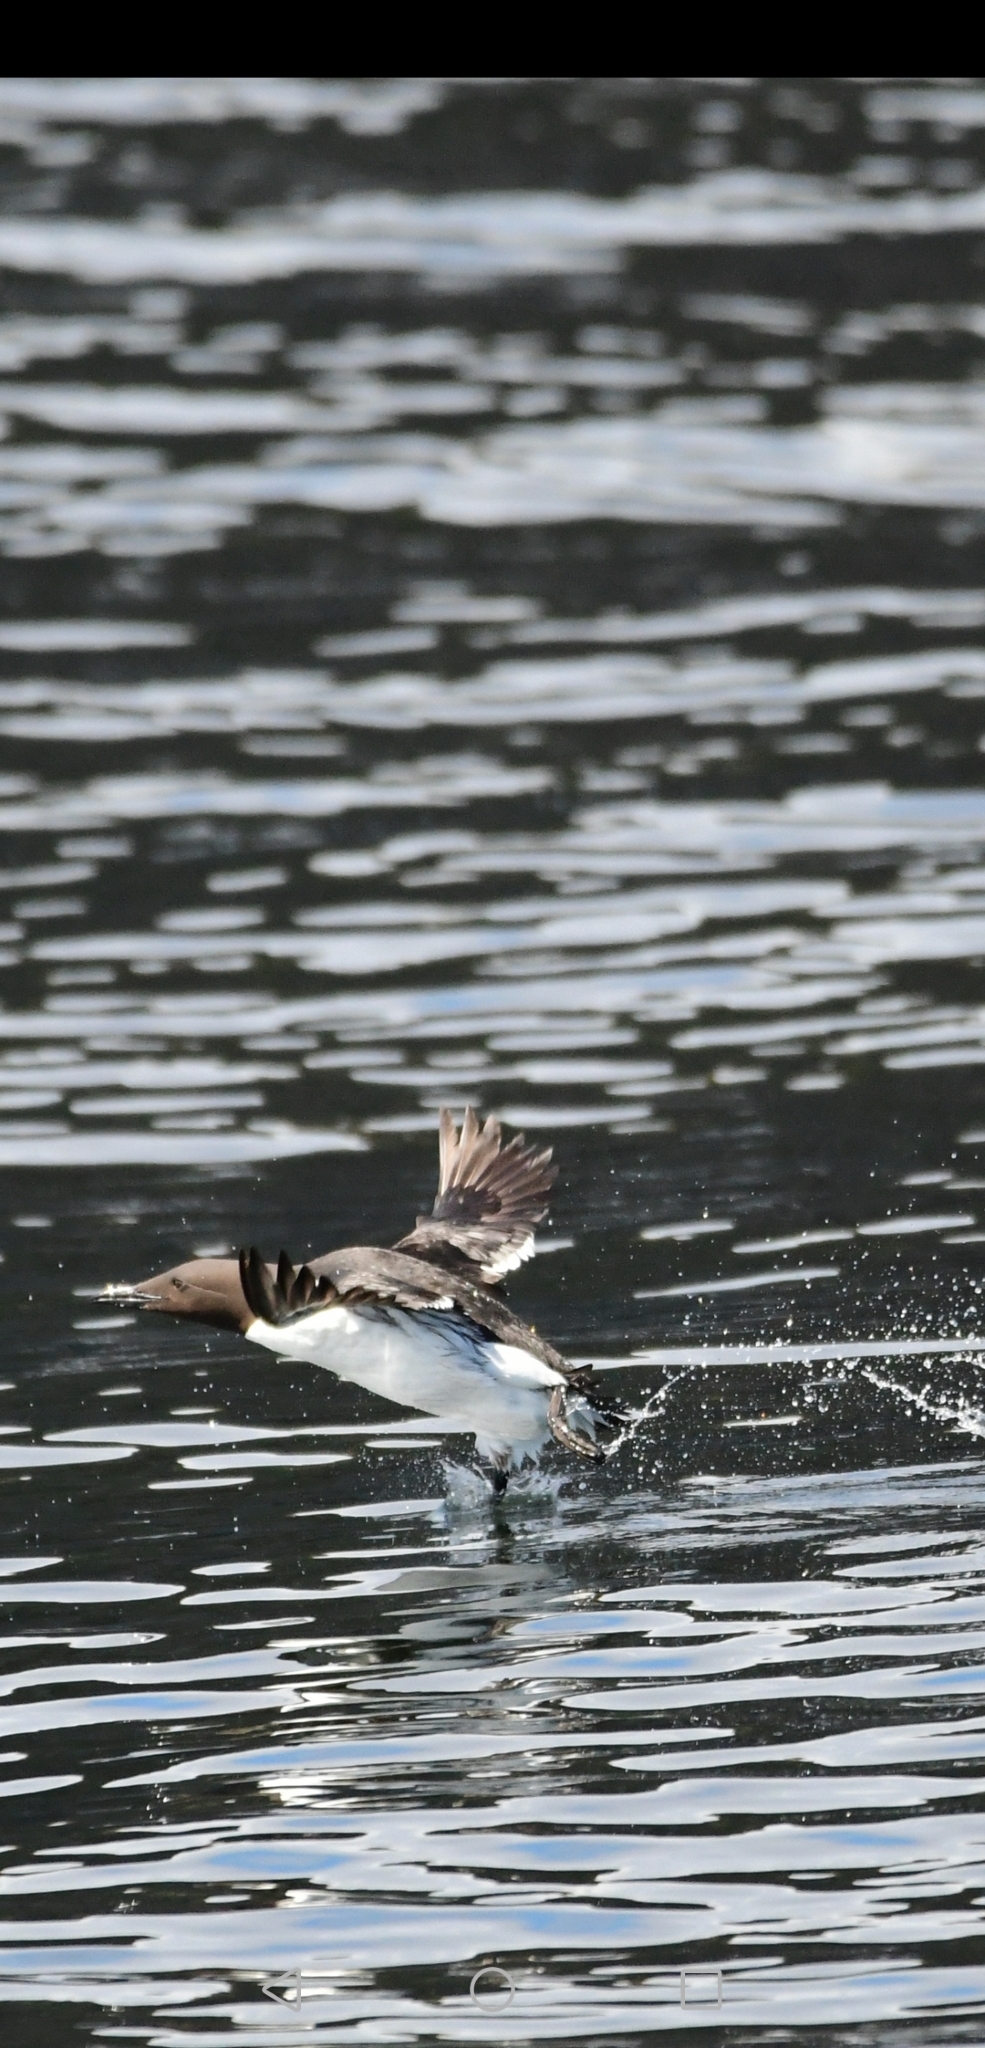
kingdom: Animalia
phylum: Chordata
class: Aves
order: Charadriiformes
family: Alcidae
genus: Uria
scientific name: Uria aalge
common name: Common murre
